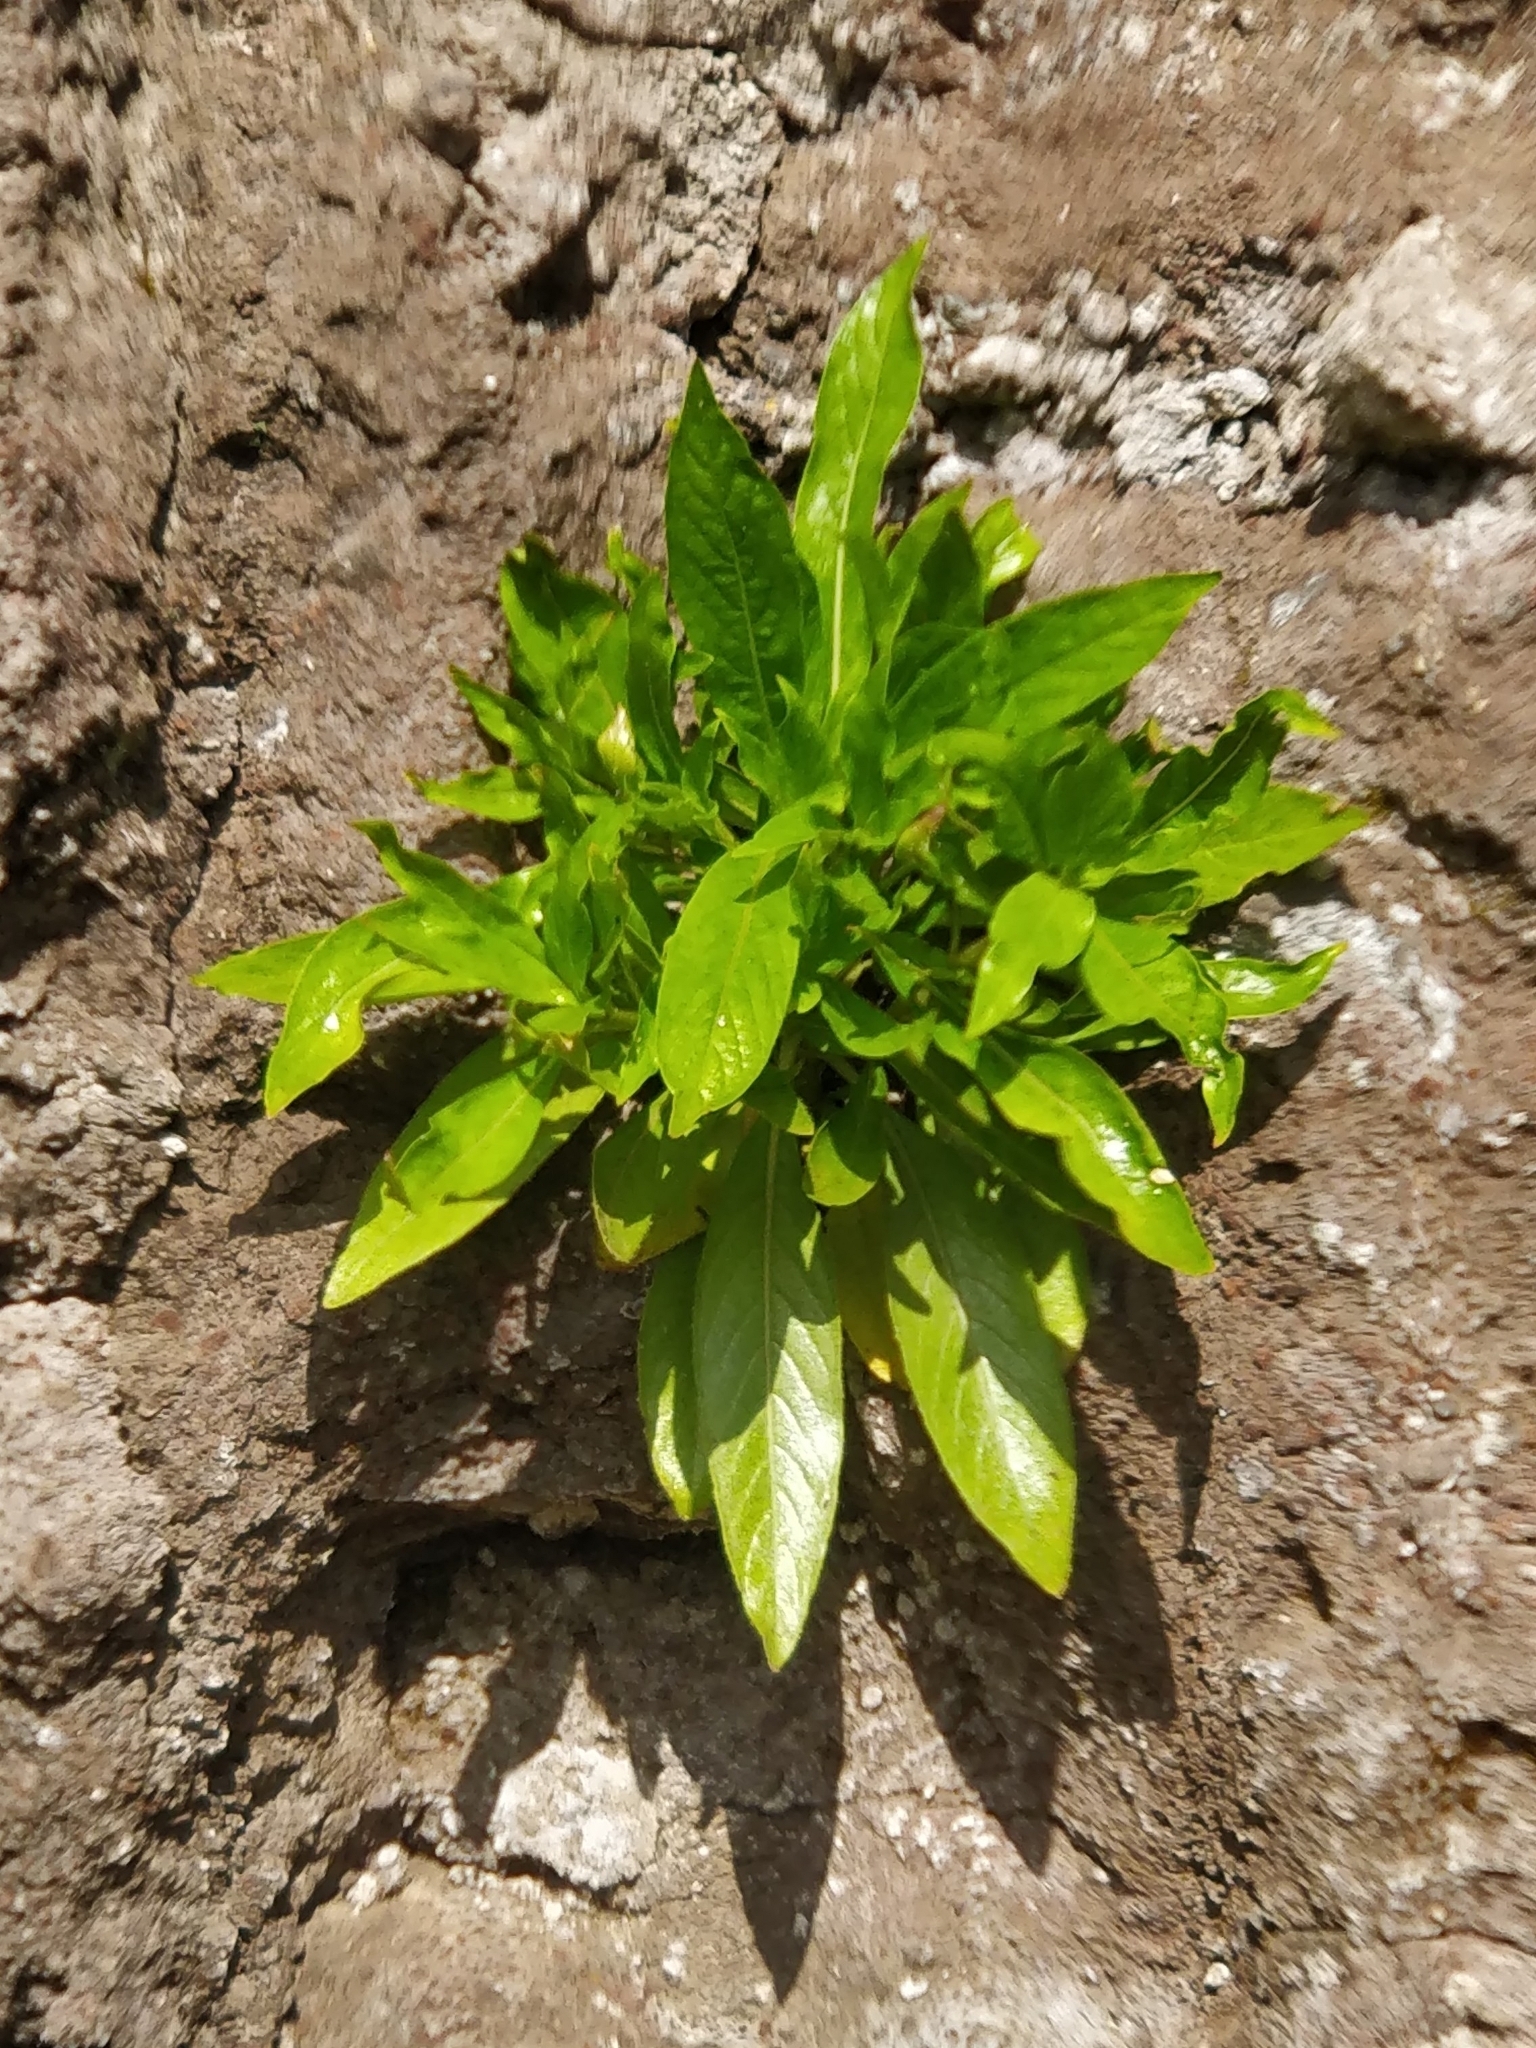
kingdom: Plantae
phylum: Tracheophyta
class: Magnoliopsida
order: Gentianales
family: Rubiaceae
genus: Phyllis
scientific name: Phyllis nobla
